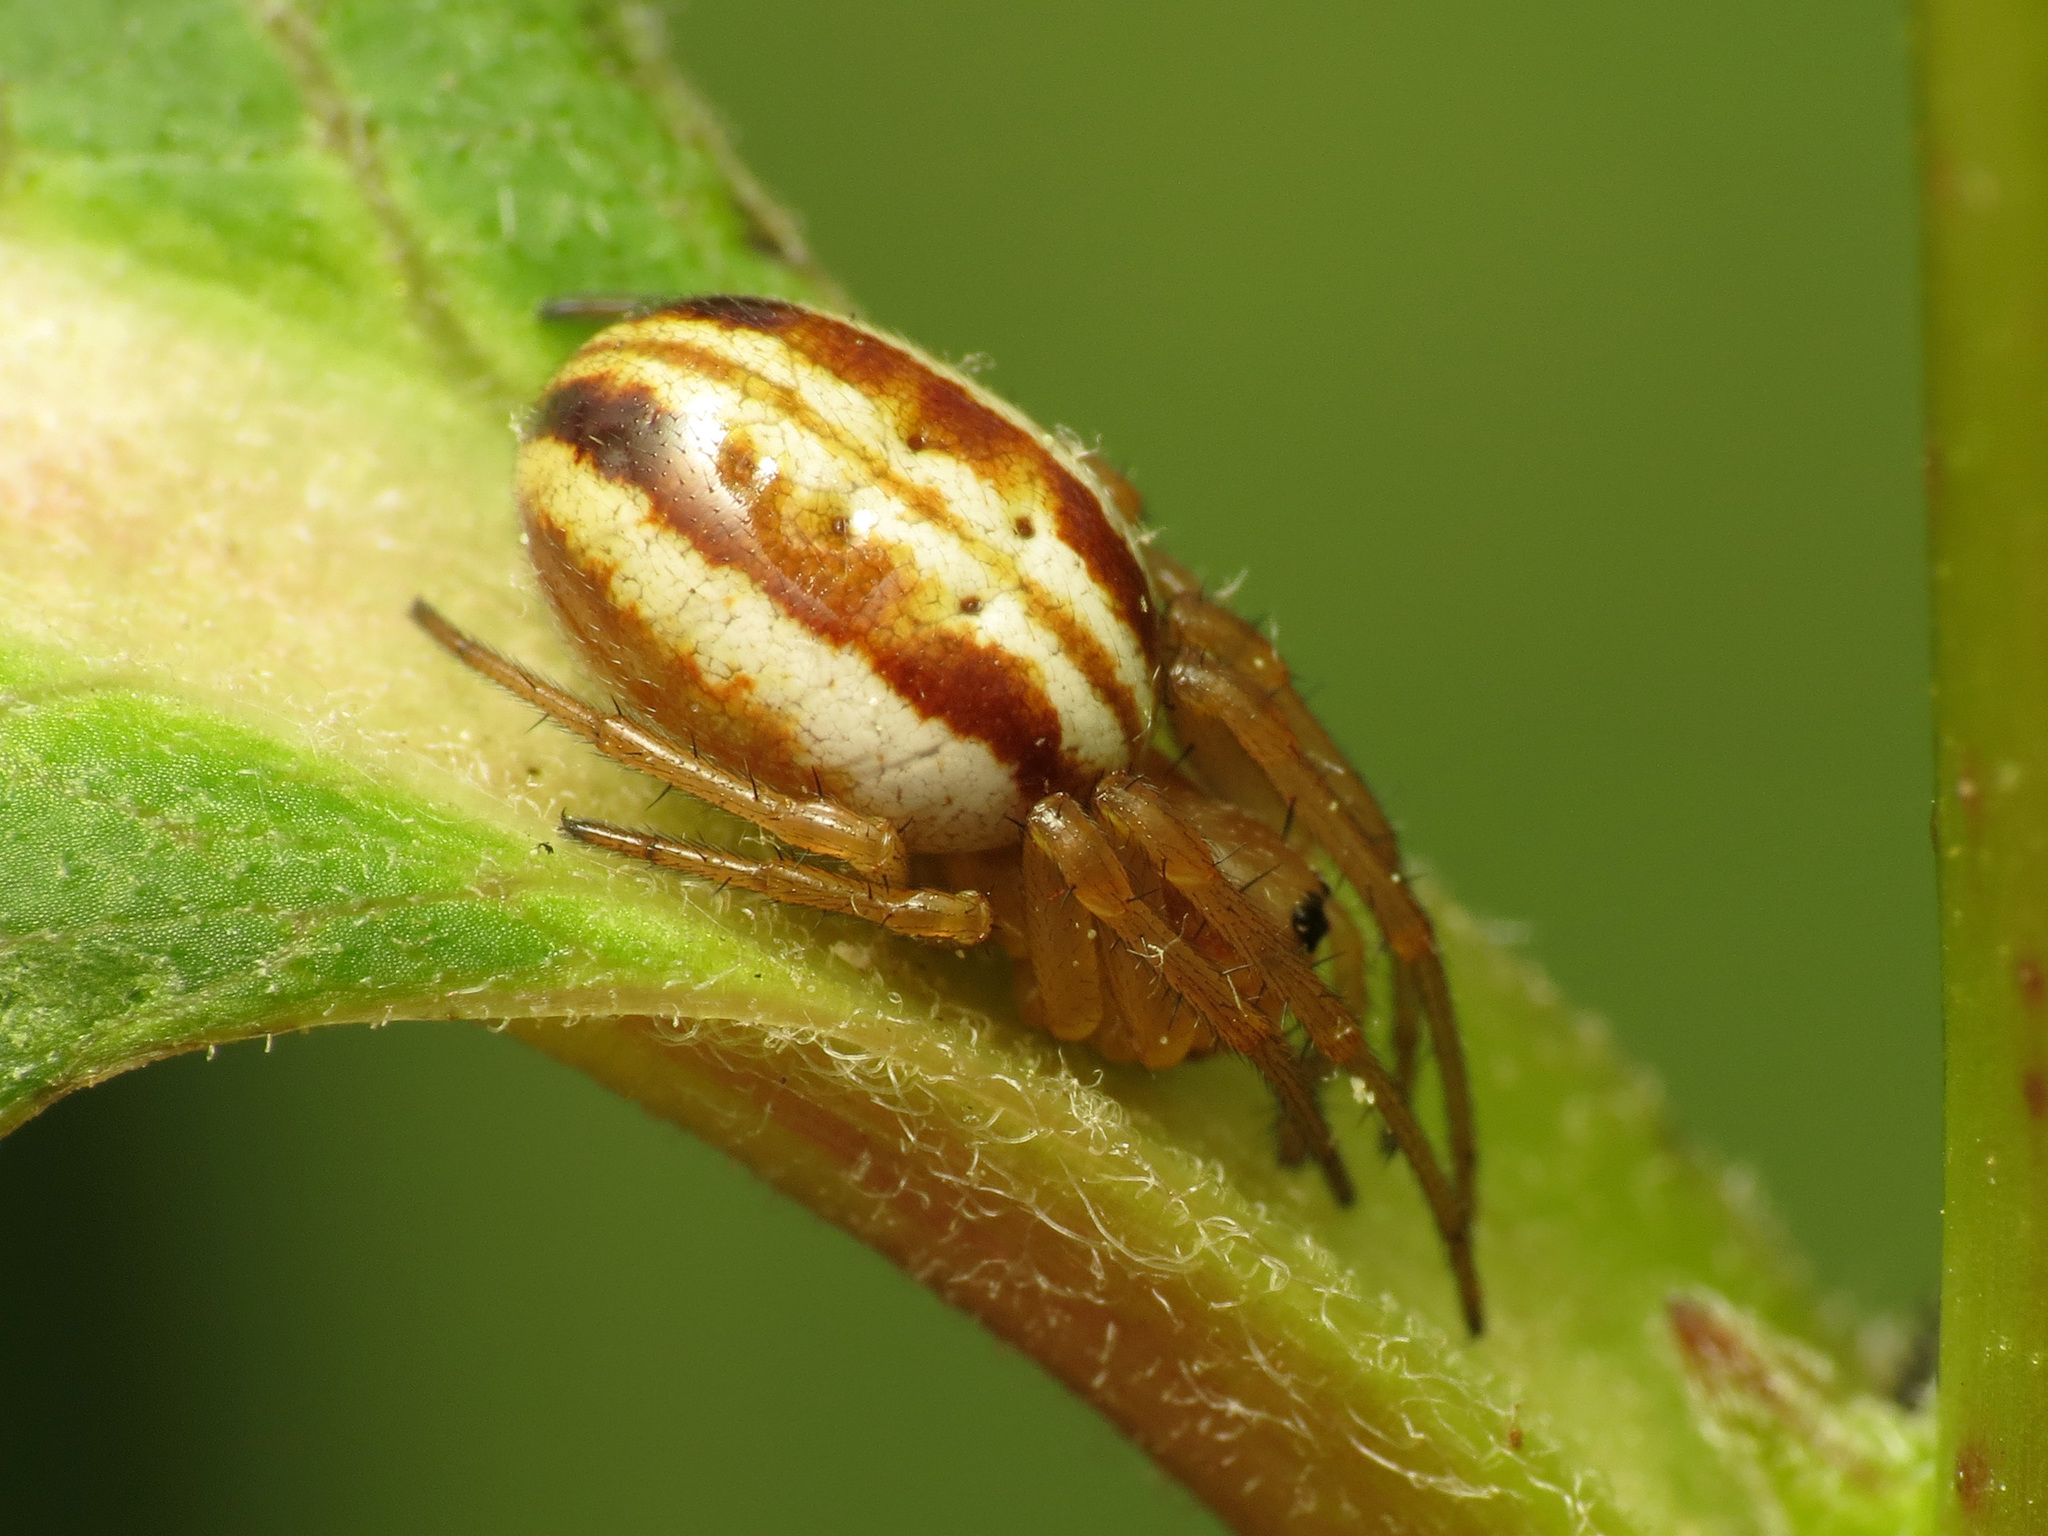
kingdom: Animalia
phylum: Arthropoda
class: Arachnida
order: Araneae
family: Araneidae
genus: Araneus
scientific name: Araneus pratensis
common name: Openfield orbweaver
